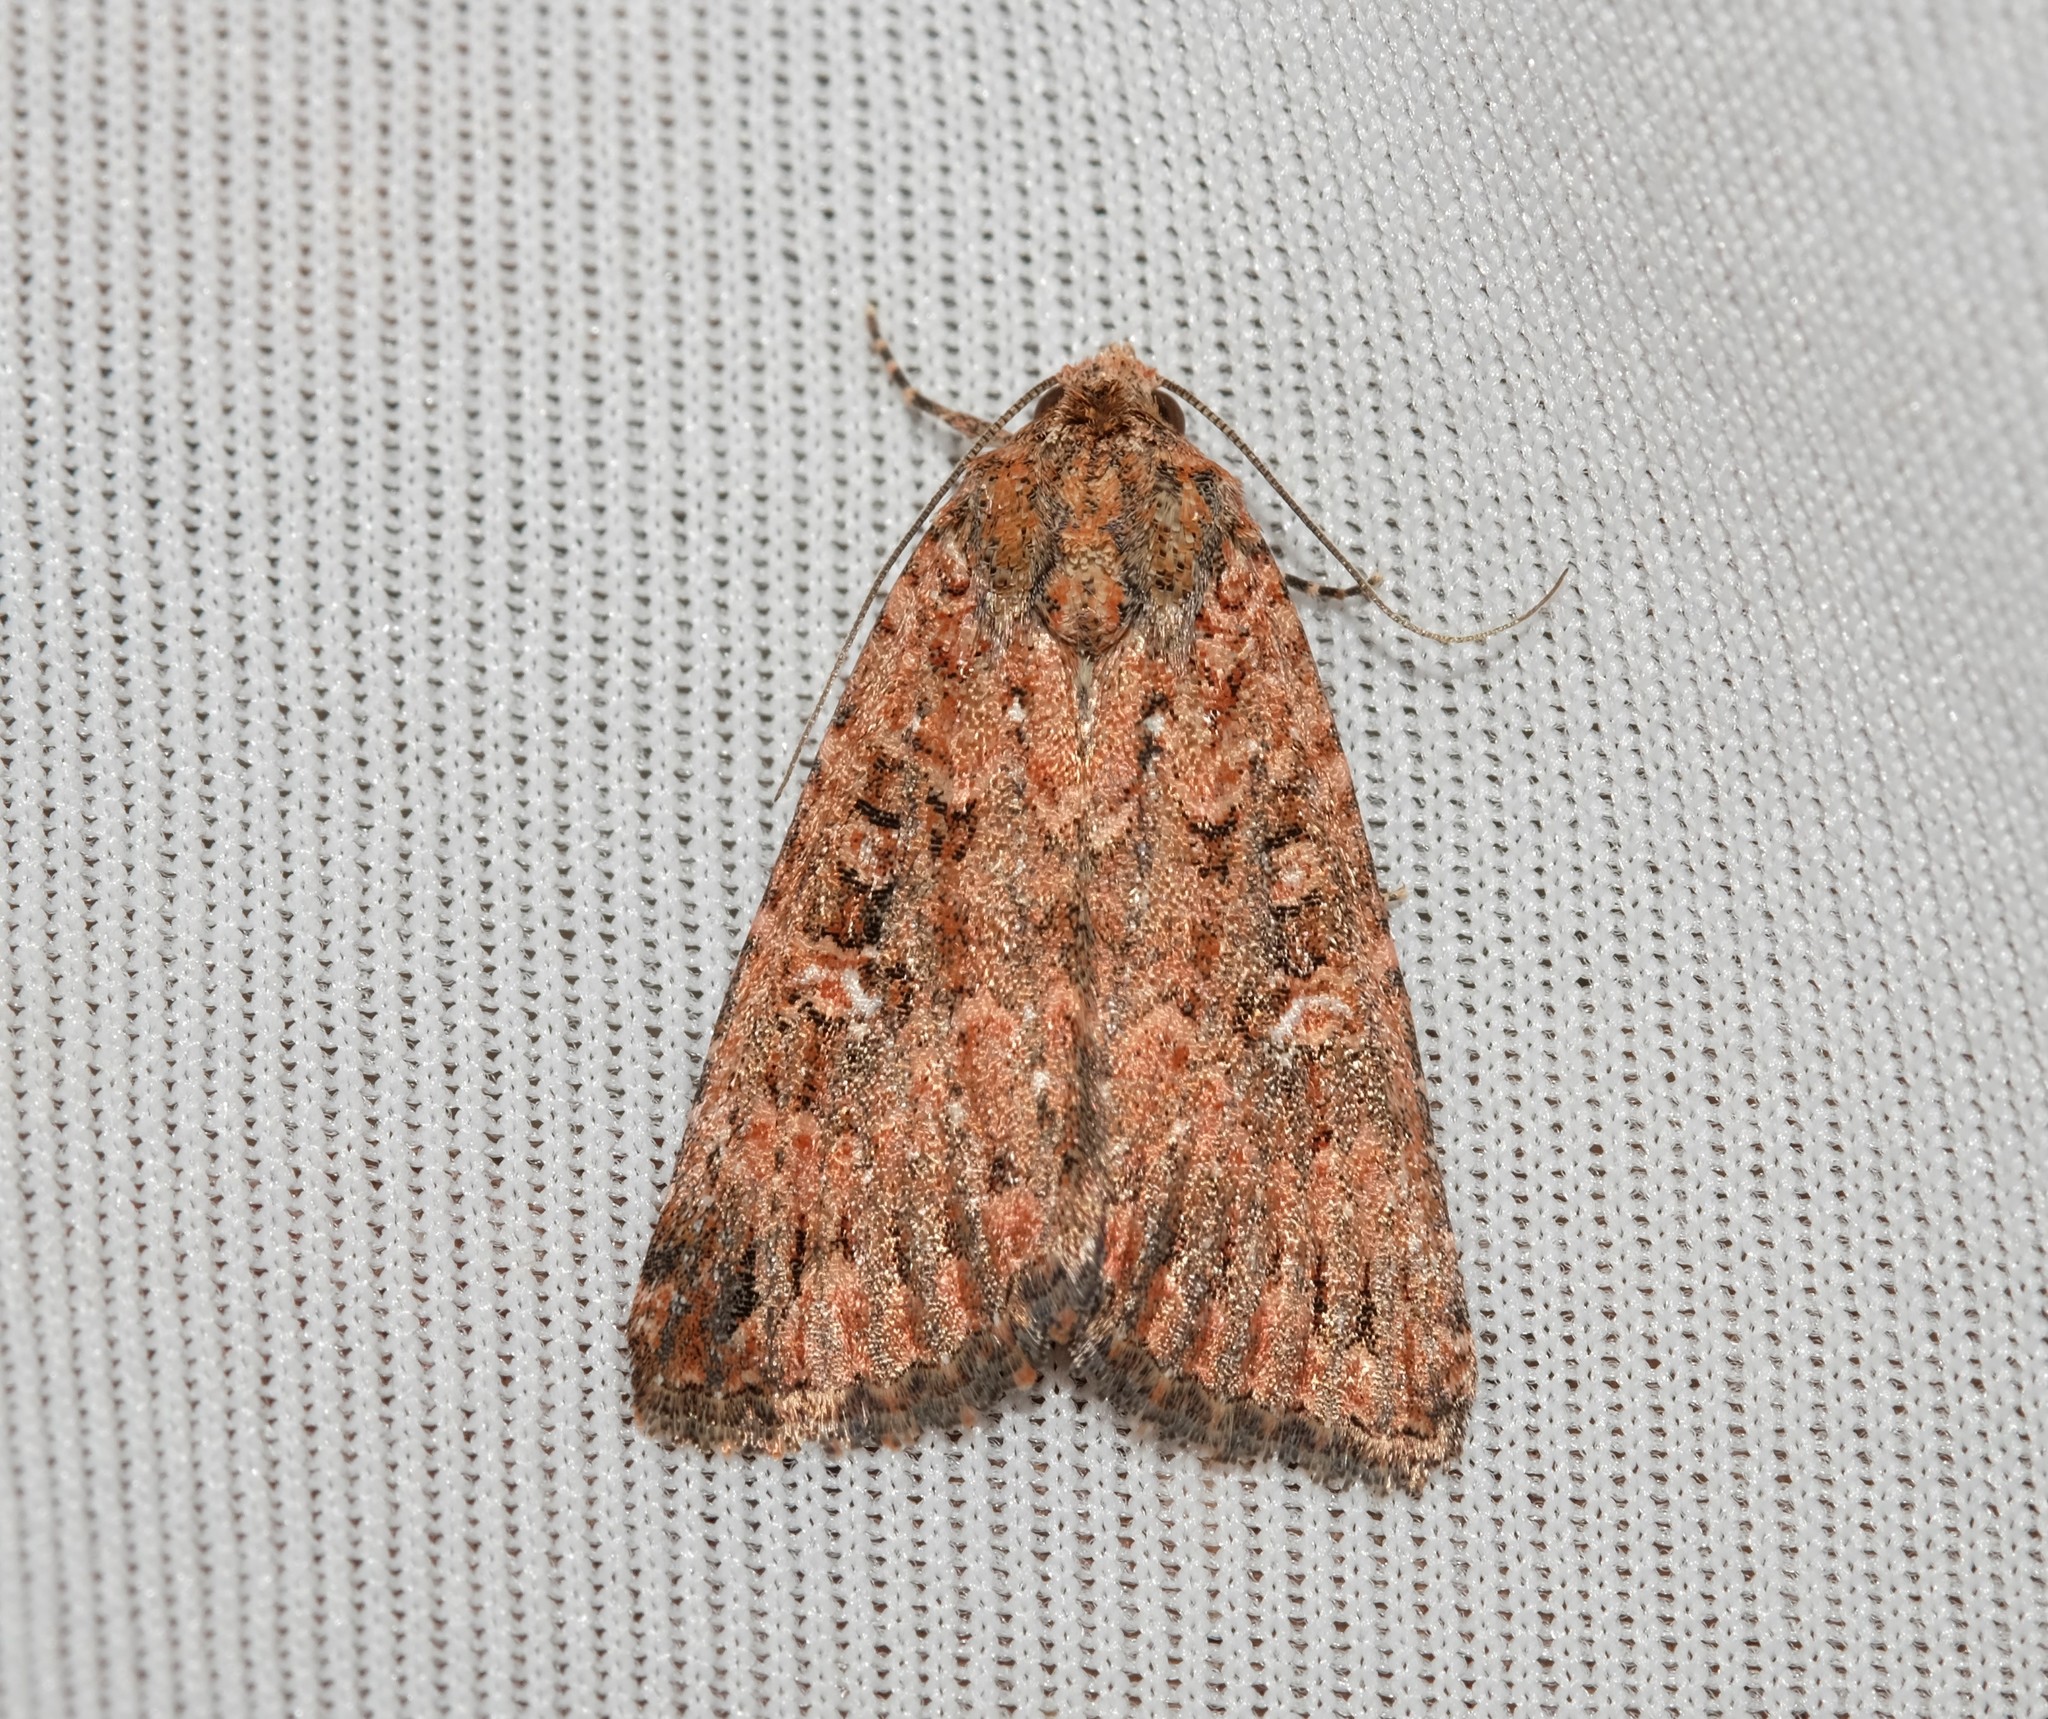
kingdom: Animalia
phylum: Arthropoda
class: Insecta
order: Lepidoptera
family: Noctuidae
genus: Hypoperigea
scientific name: Hypoperigea tonsa
